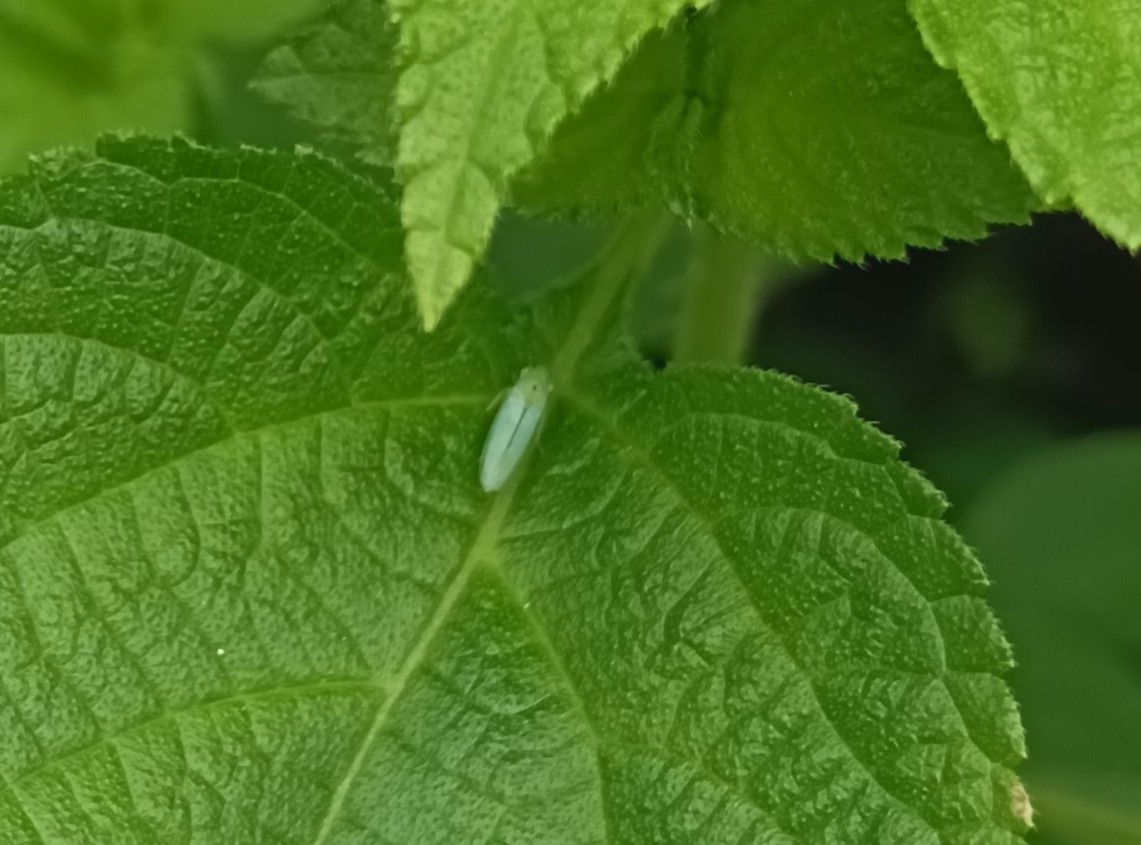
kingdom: Animalia
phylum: Arthropoda
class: Insecta
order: Hemiptera
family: Cicadellidae
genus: Kolla
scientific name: Kolla ceylonica
